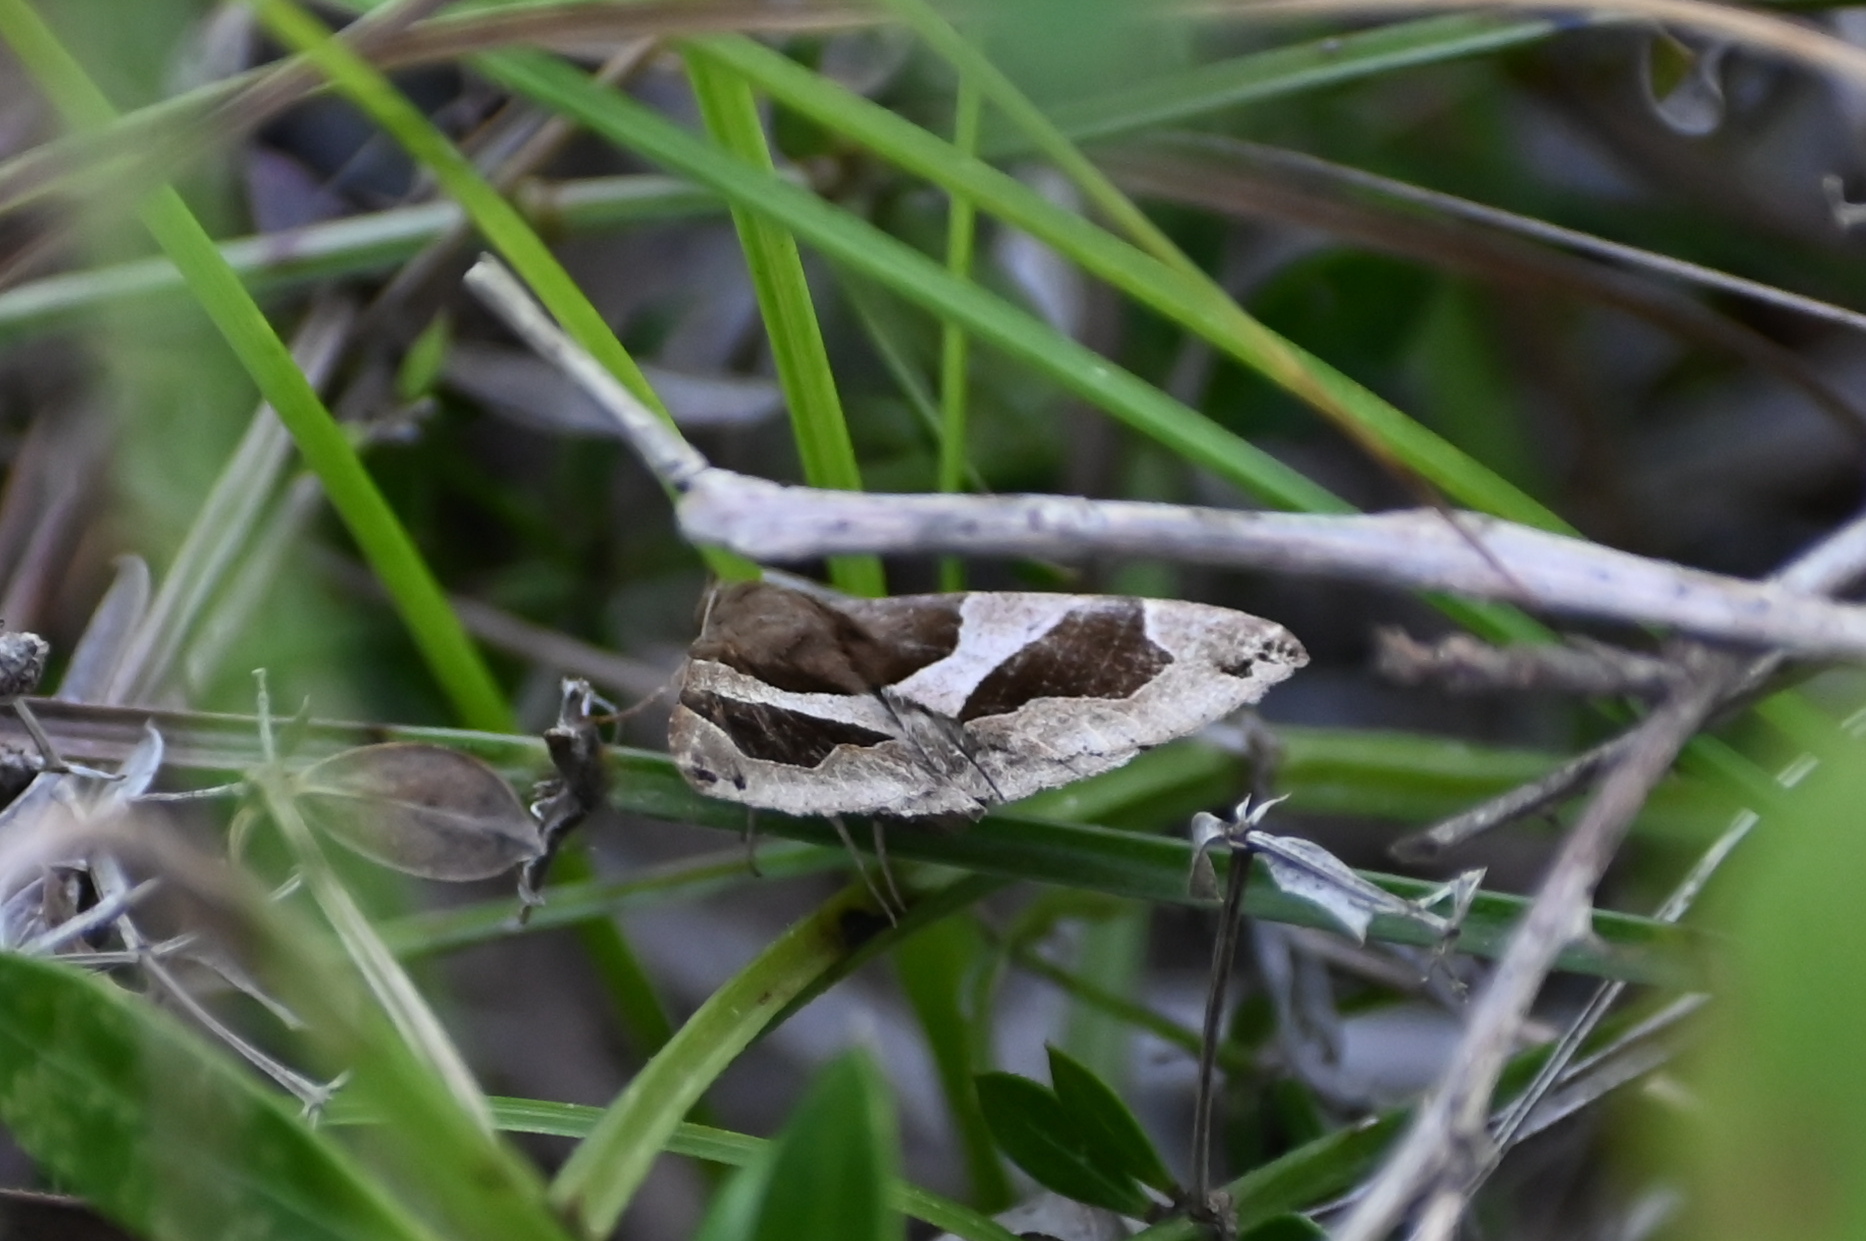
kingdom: Animalia
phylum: Arthropoda
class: Insecta
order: Lepidoptera
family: Erebidae
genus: Dysgonia
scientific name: Dysgonia algira
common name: Passenger
